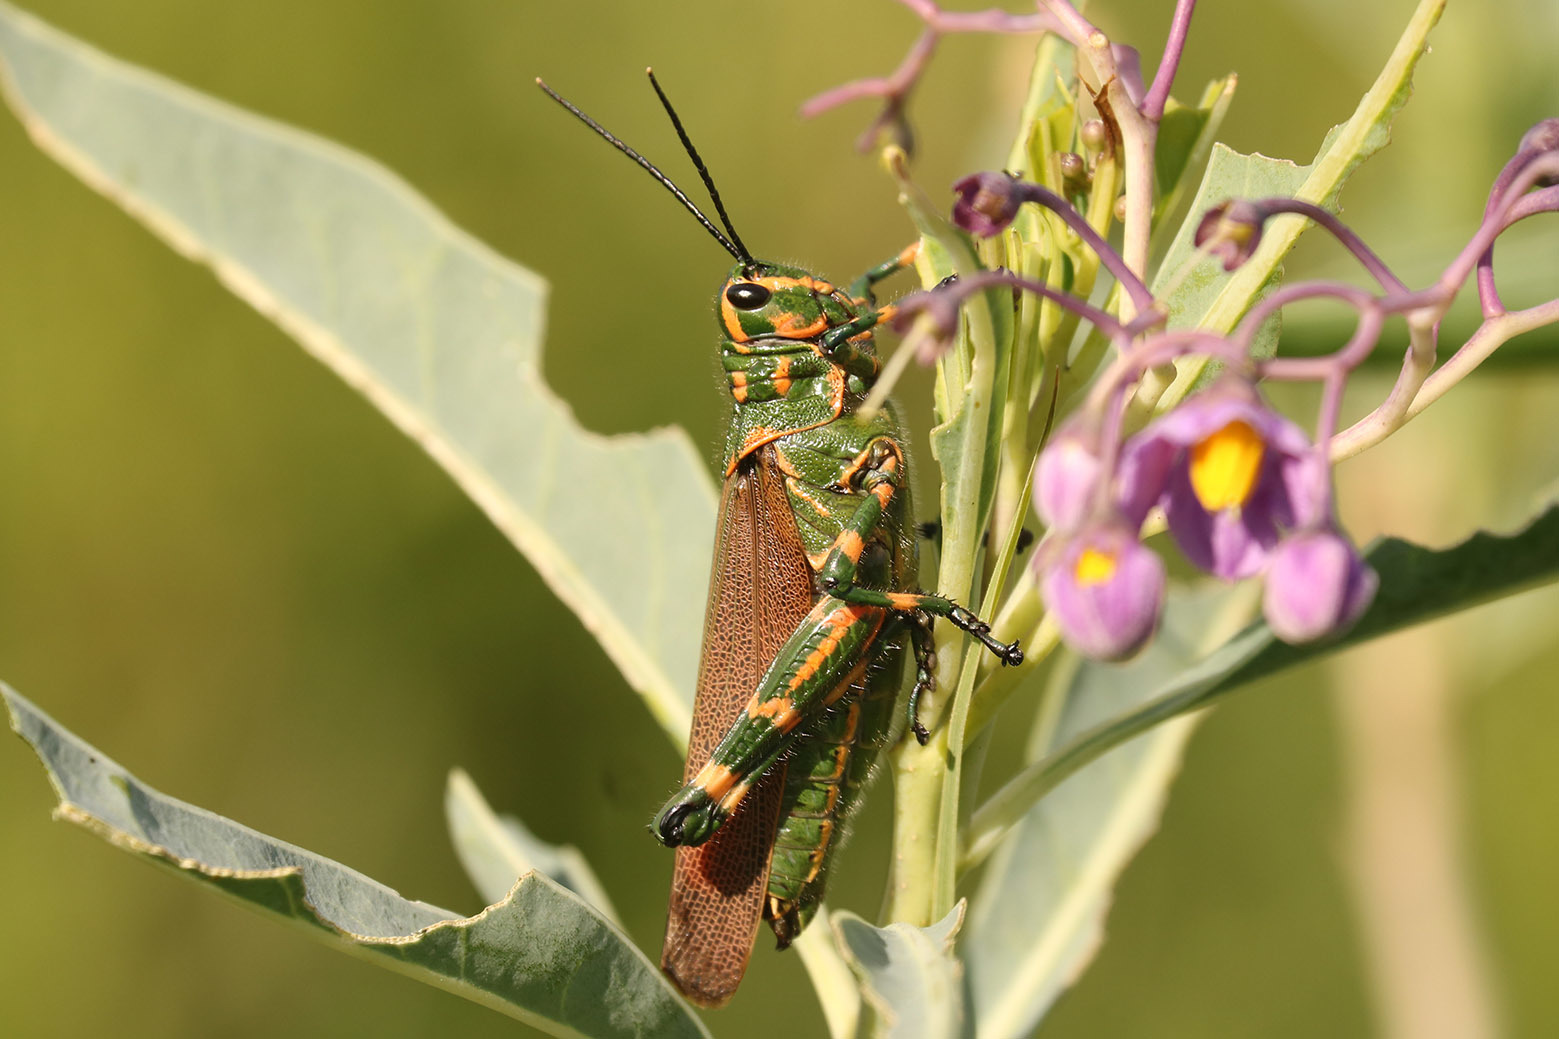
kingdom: Animalia
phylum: Arthropoda
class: Insecta
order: Orthoptera
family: Romaleidae
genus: Chromacris
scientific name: Chromacris speciosa
